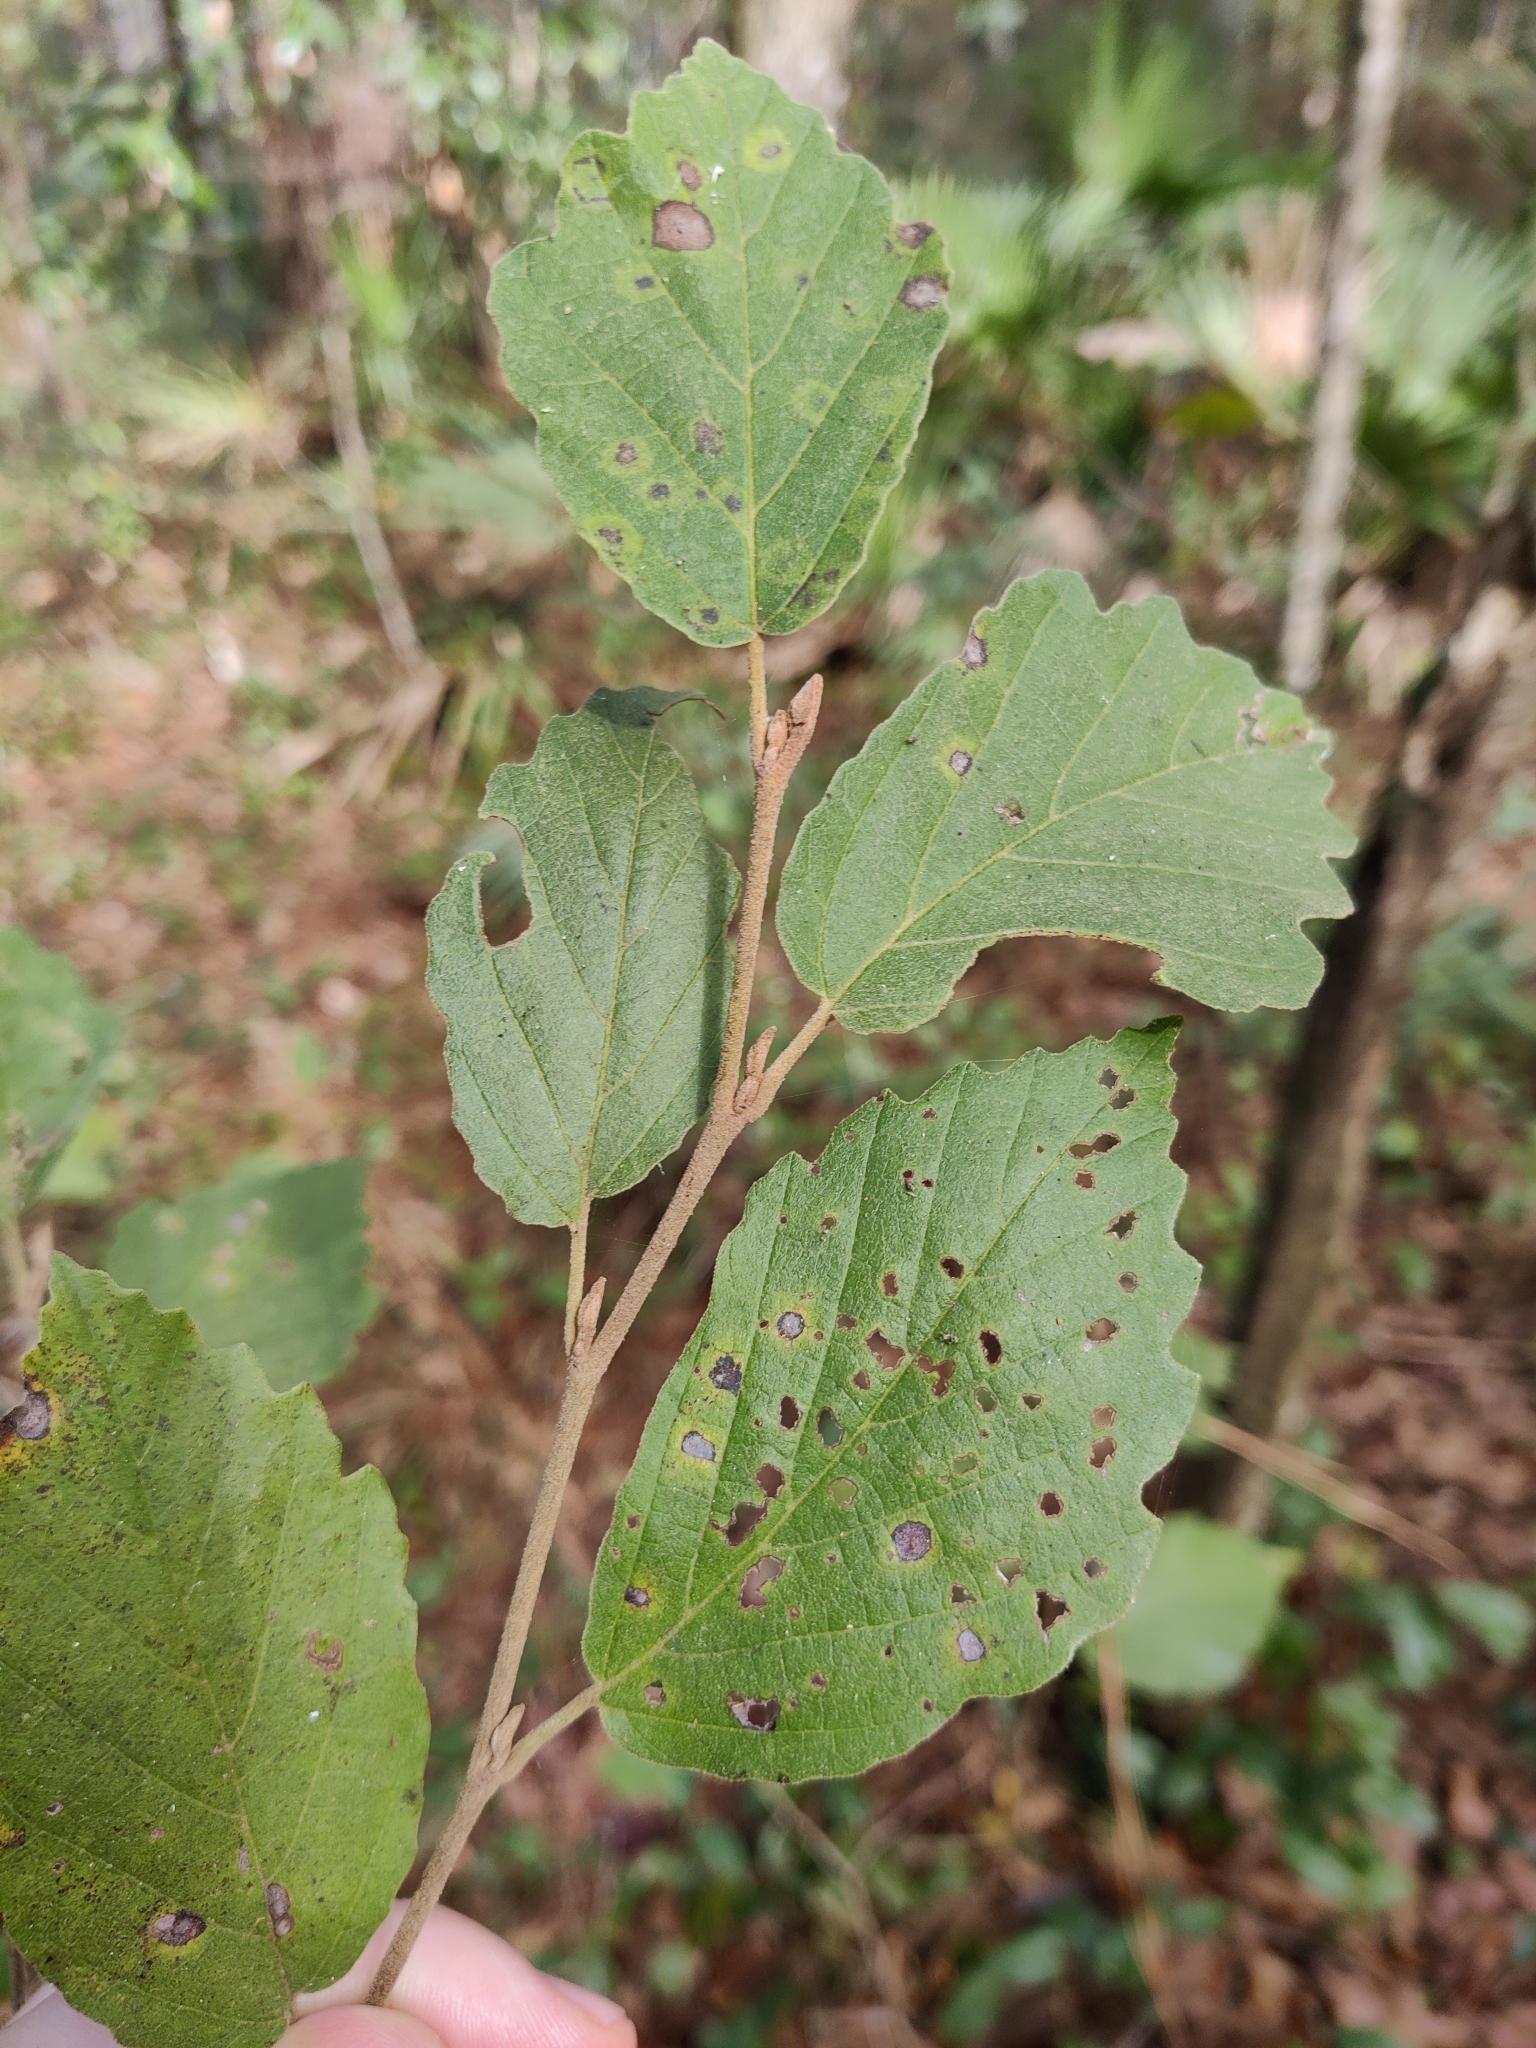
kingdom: Plantae
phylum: Tracheophyta
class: Magnoliopsida
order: Saxifragales
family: Hamamelidaceae
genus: Hamamelis
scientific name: Hamamelis virginiana
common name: Witch-hazel
